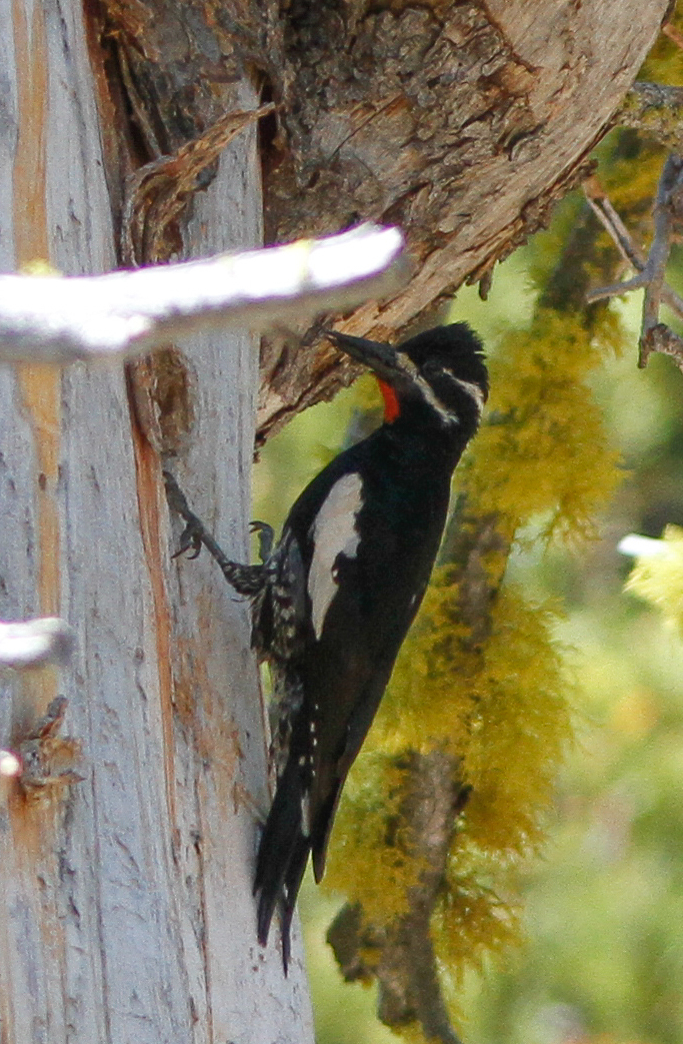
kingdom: Animalia
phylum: Chordata
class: Aves
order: Piciformes
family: Picidae
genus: Sphyrapicus
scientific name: Sphyrapicus thyroideus
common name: Williamson's sapsucker
